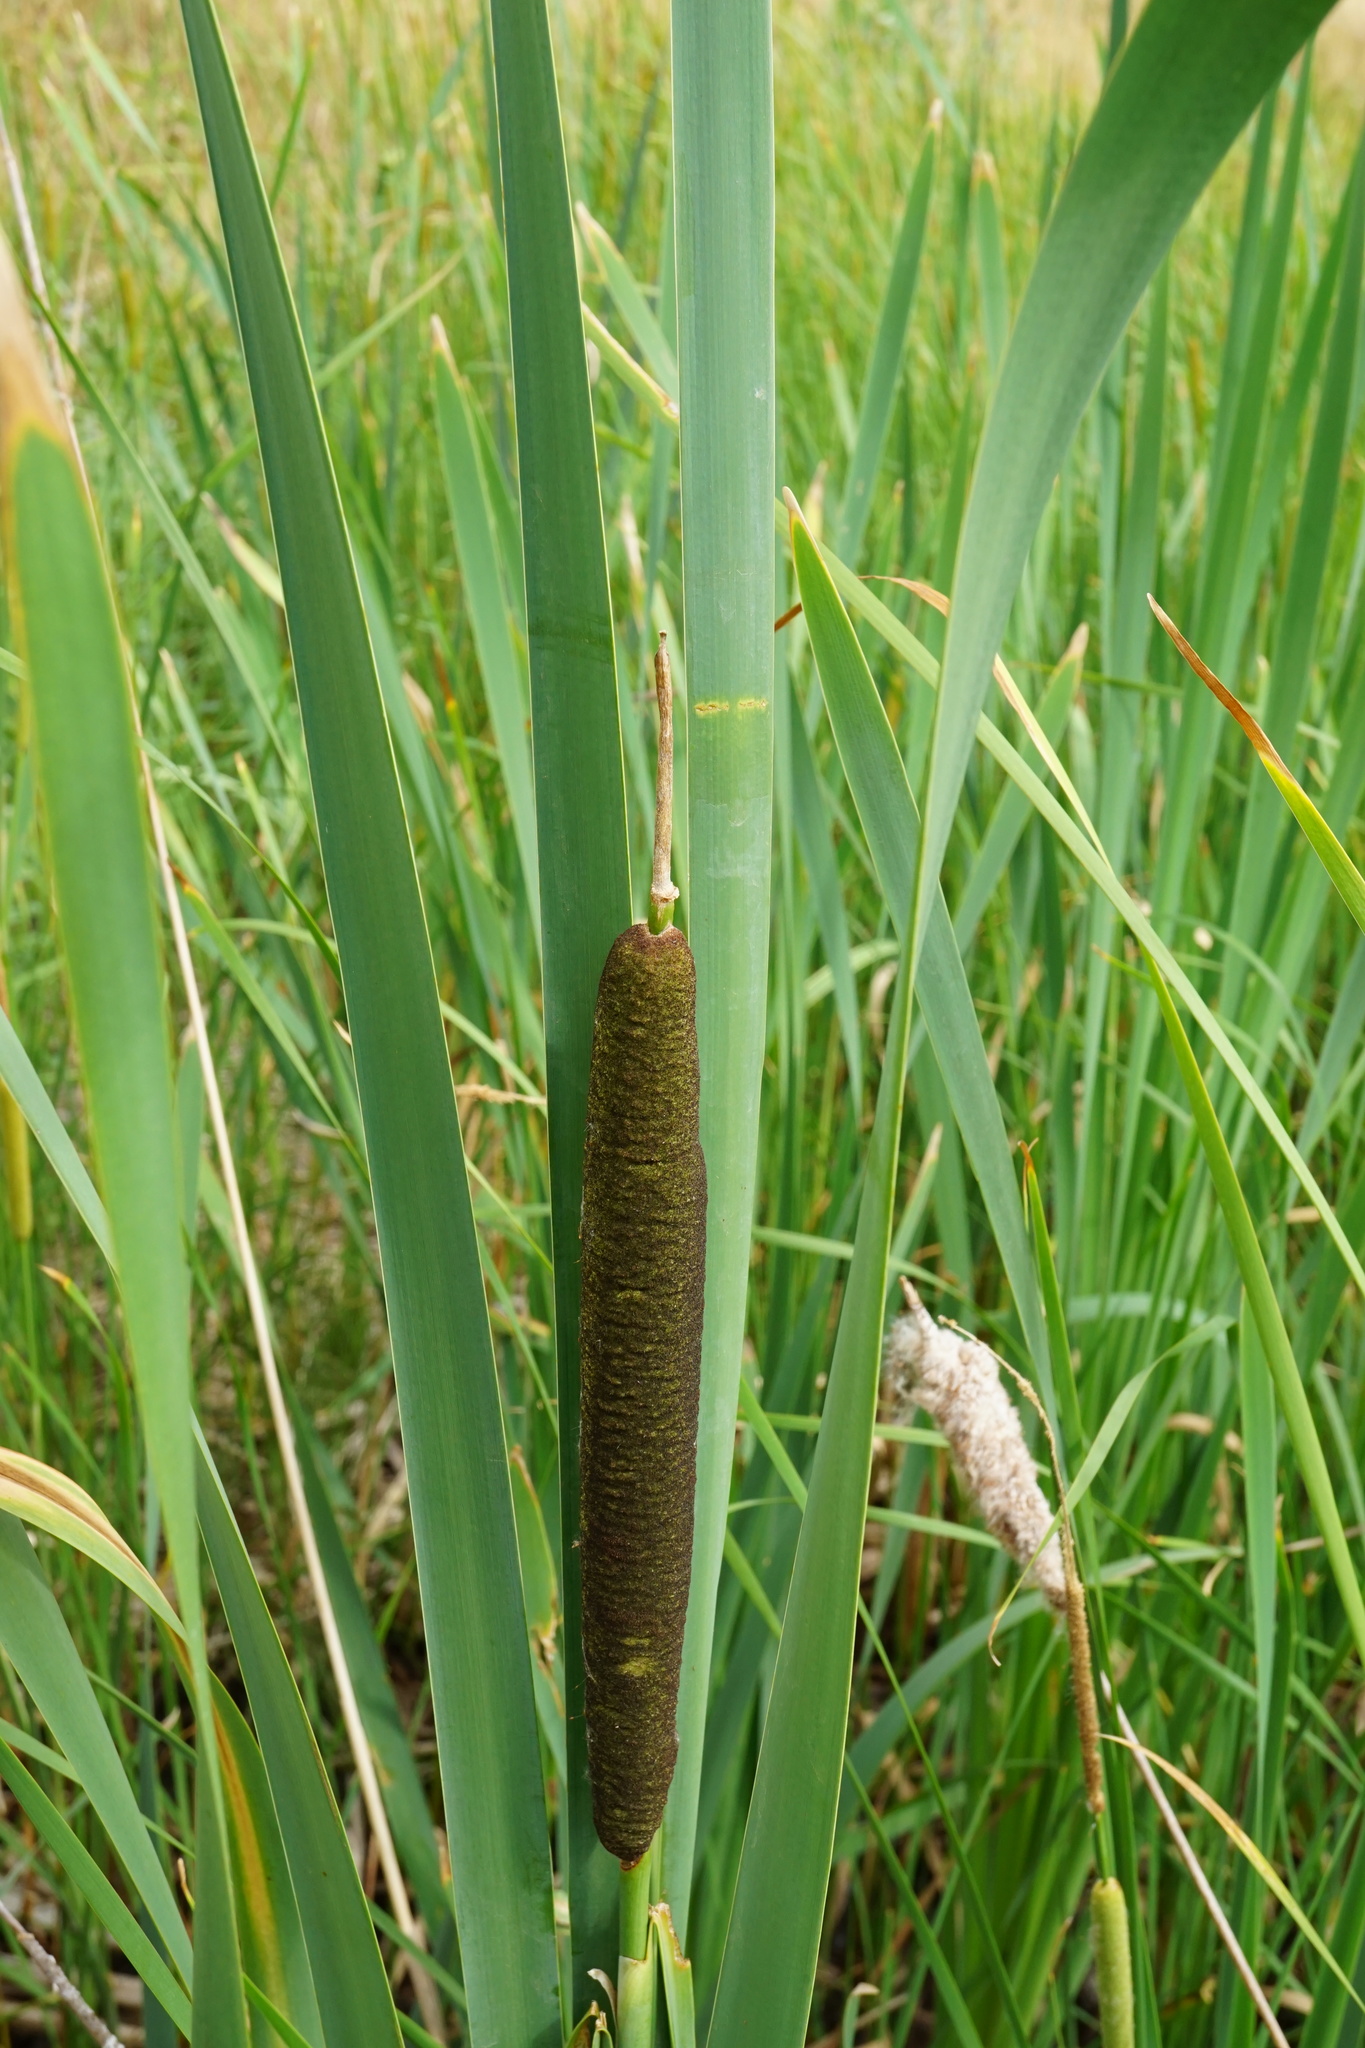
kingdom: Plantae
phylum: Tracheophyta
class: Liliopsida
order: Poales
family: Typhaceae
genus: Typha
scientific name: Typha glauca
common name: Blue cattail
